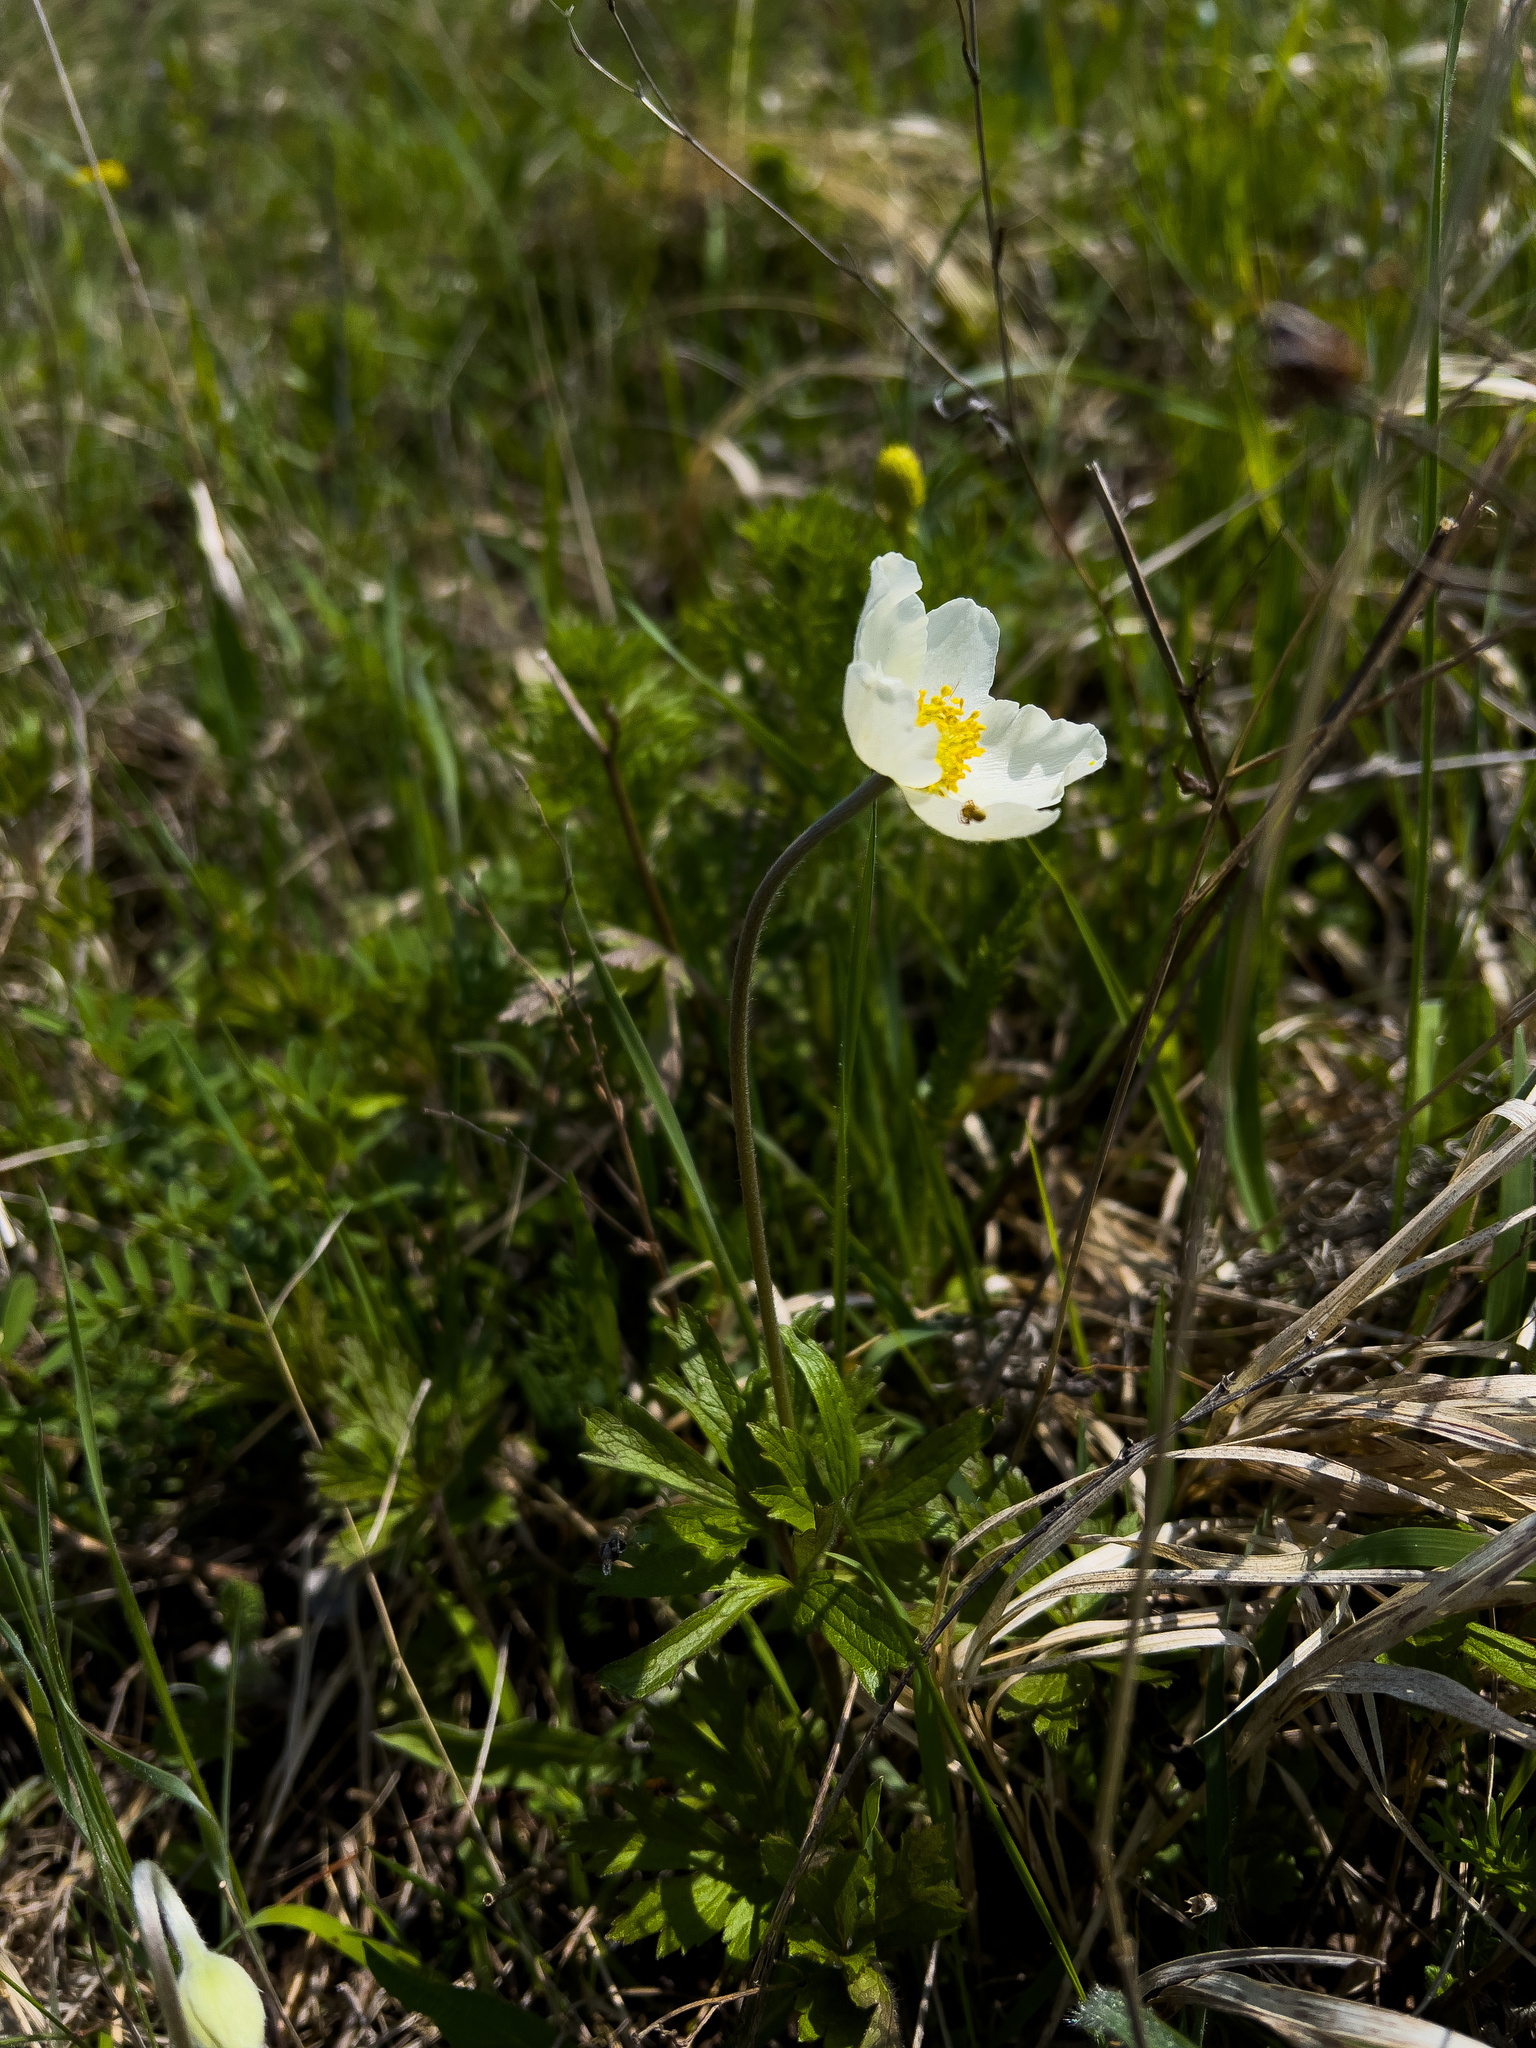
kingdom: Plantae
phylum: Tracheophyta
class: Magnoliopsida
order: Ranunculales
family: Ranunculaceae
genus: Anemone
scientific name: Anemone sylvestris
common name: Snowdrop anemone
